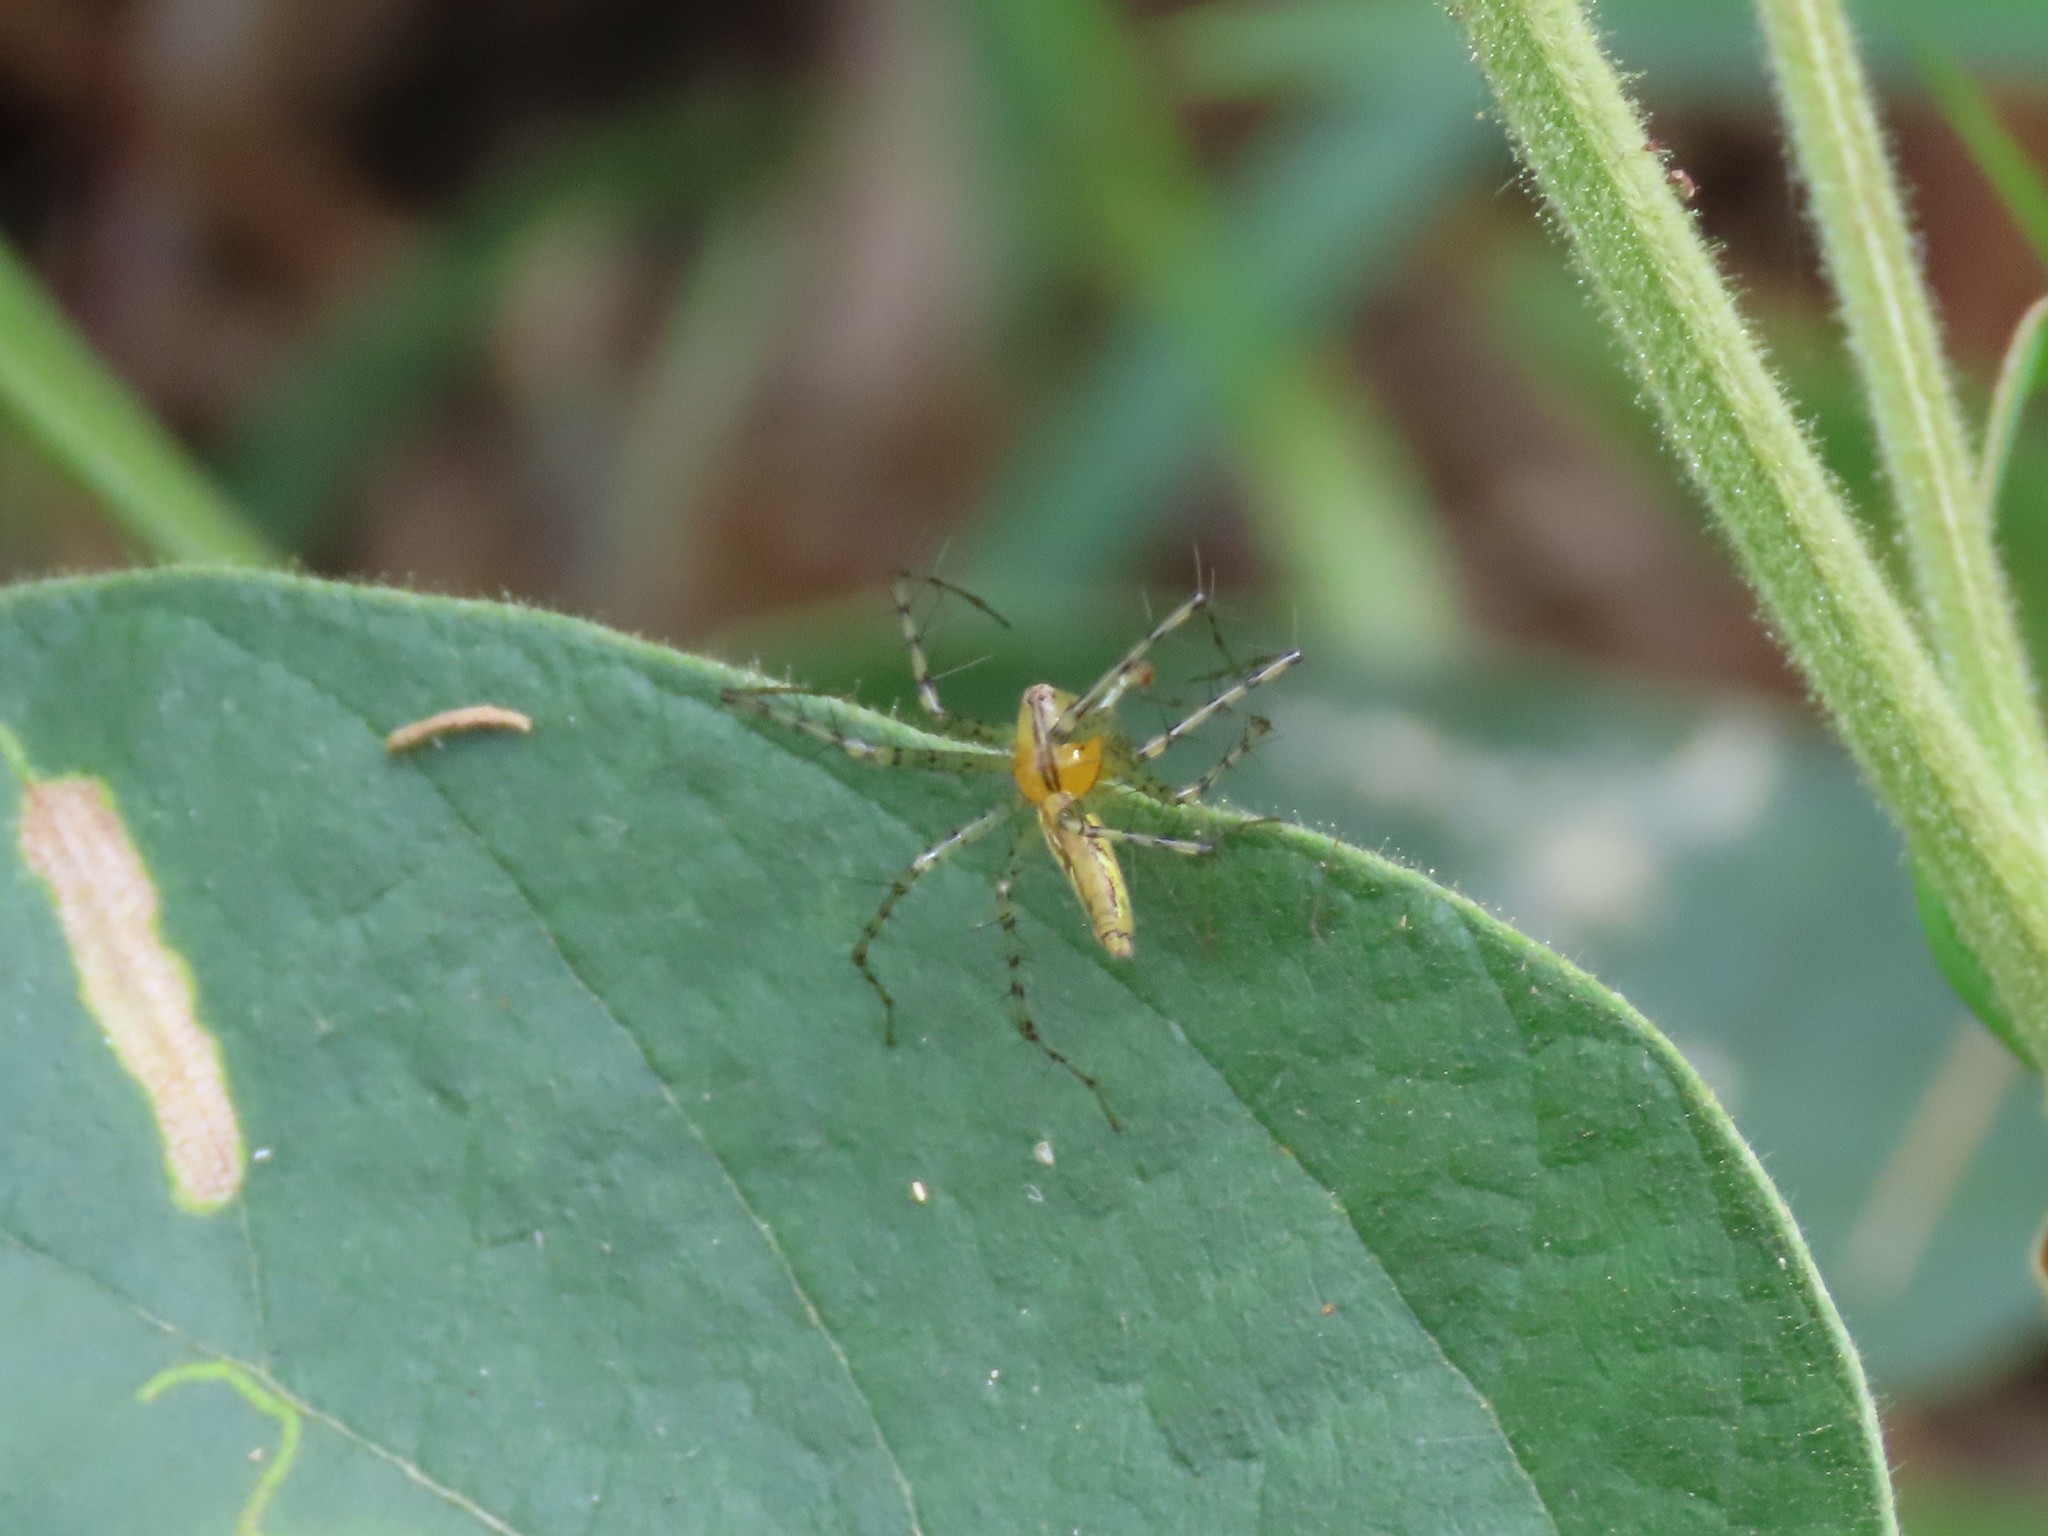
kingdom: Animalia
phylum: Arthropoda
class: Arachnida
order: Araneae
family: Oxyopidae
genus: Peucetia
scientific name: Peucetia rubrolineata
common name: Lynx spiders
